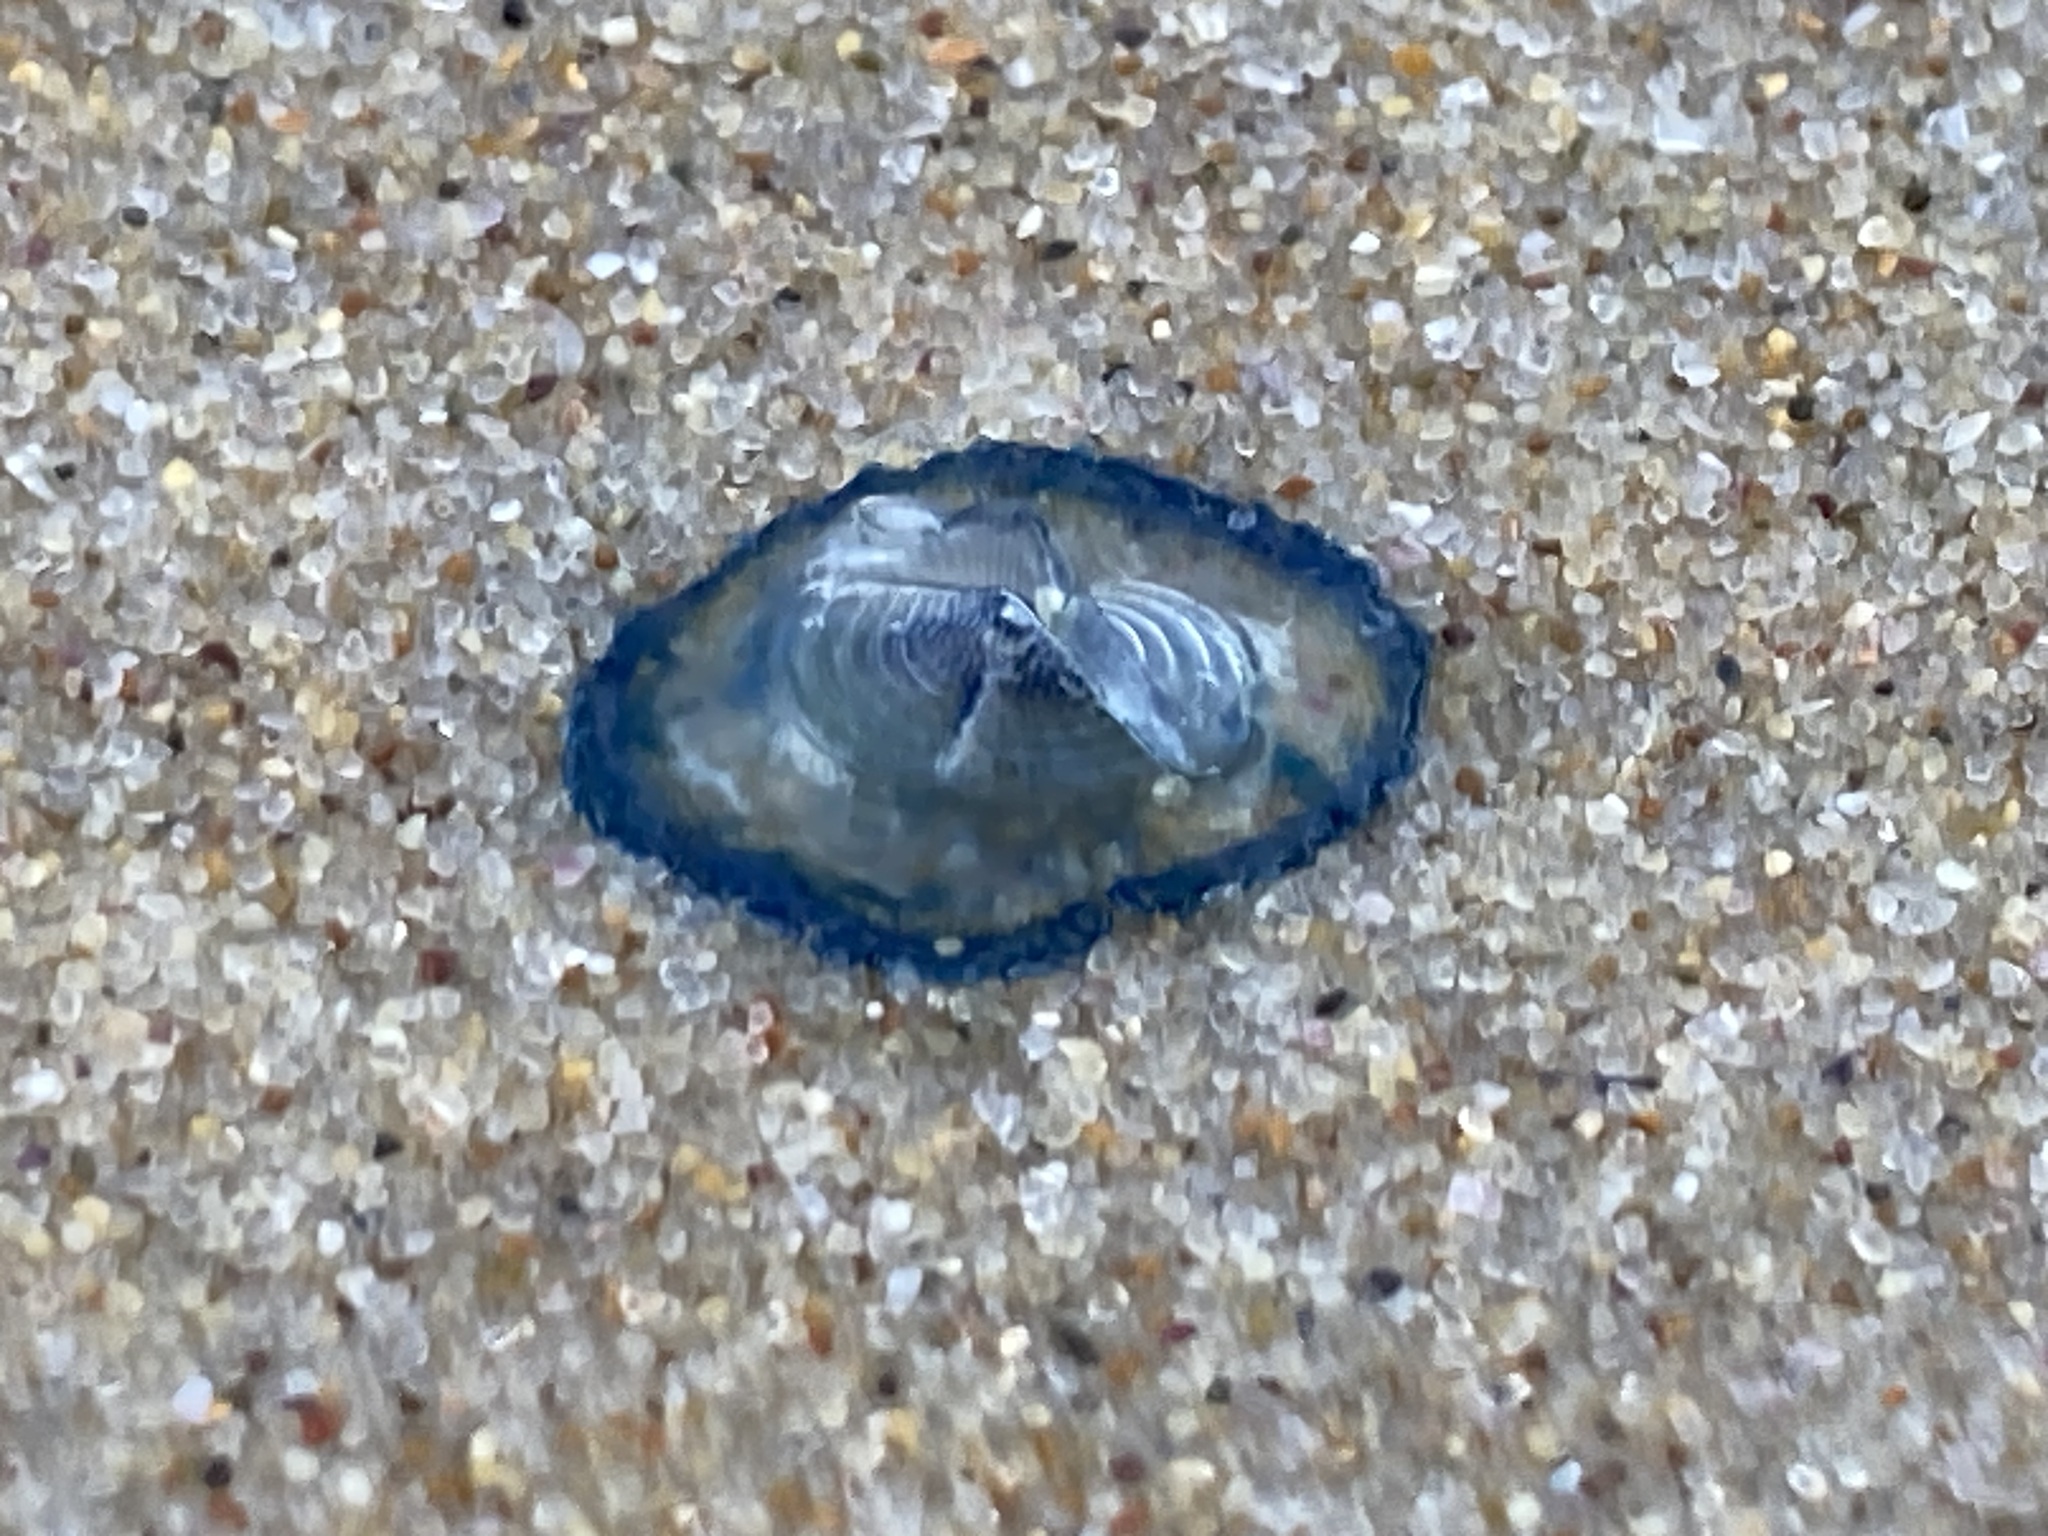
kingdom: Animalia
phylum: Cnidaria
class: Hydrozoa
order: Anthoathecata
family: Porpitidae
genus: Velella
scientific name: Velella velella
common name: By-the-wind-sailor
